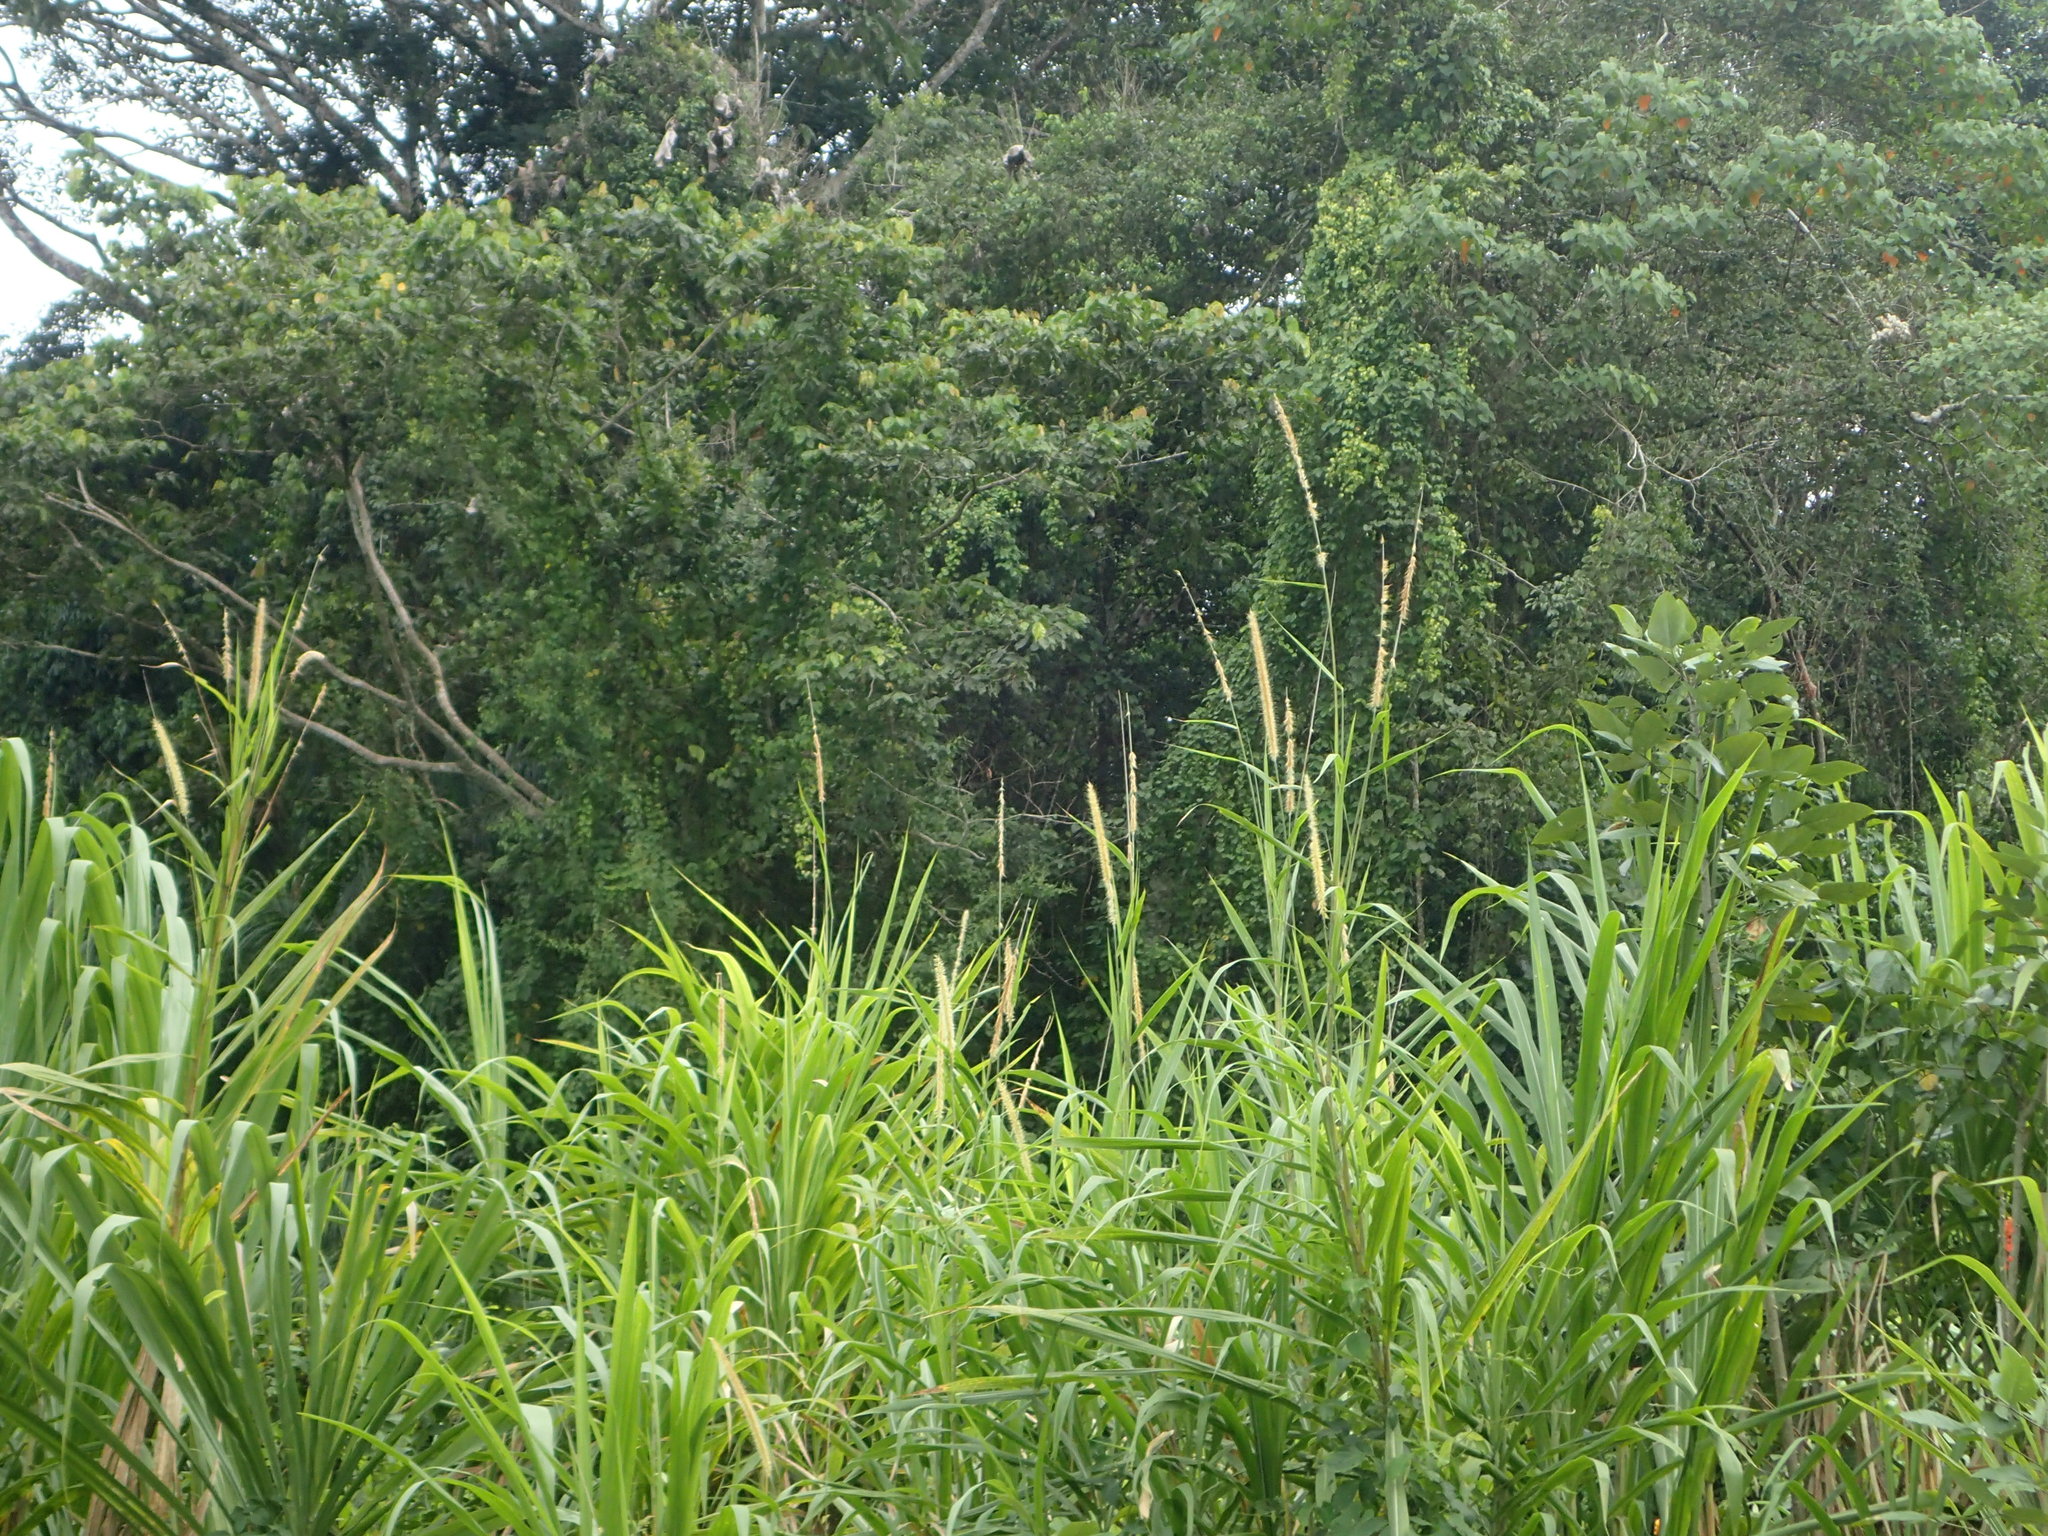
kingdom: Plantae
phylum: Tracheophyta
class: Liliopsida
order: Poales
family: Poaceae
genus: Cenchrus
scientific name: Cenchrus purpureus
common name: Elephant grass
